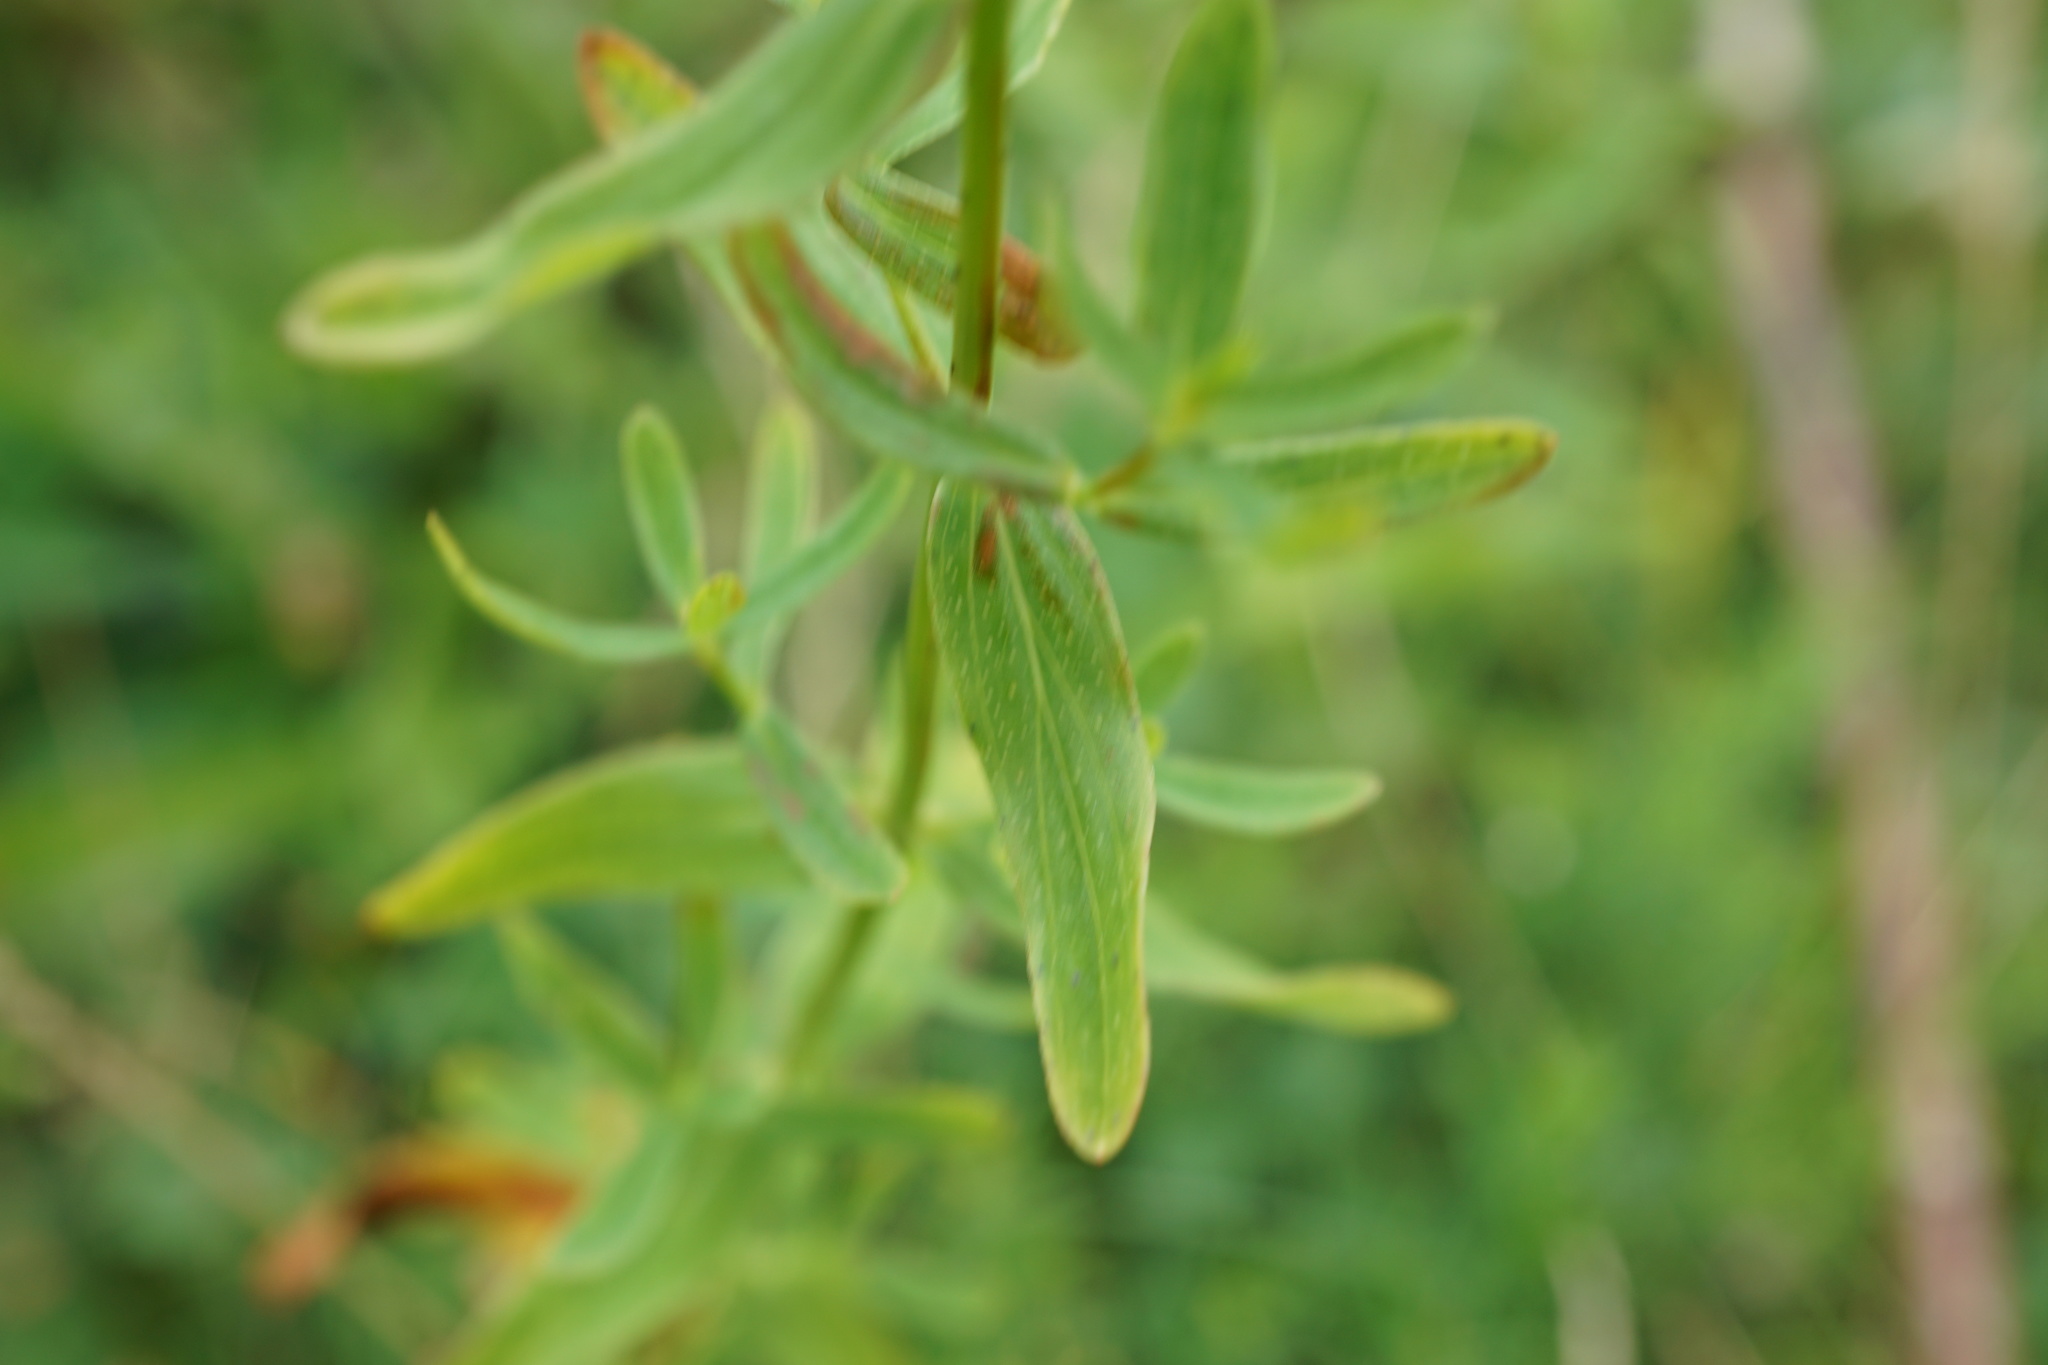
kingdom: Plantae
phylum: Tracheophyta
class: Magnoliopsida
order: Malpighiales
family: Hypericaceae
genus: Hypericum
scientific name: Hypericum perforatum
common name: Common st. johnswort
